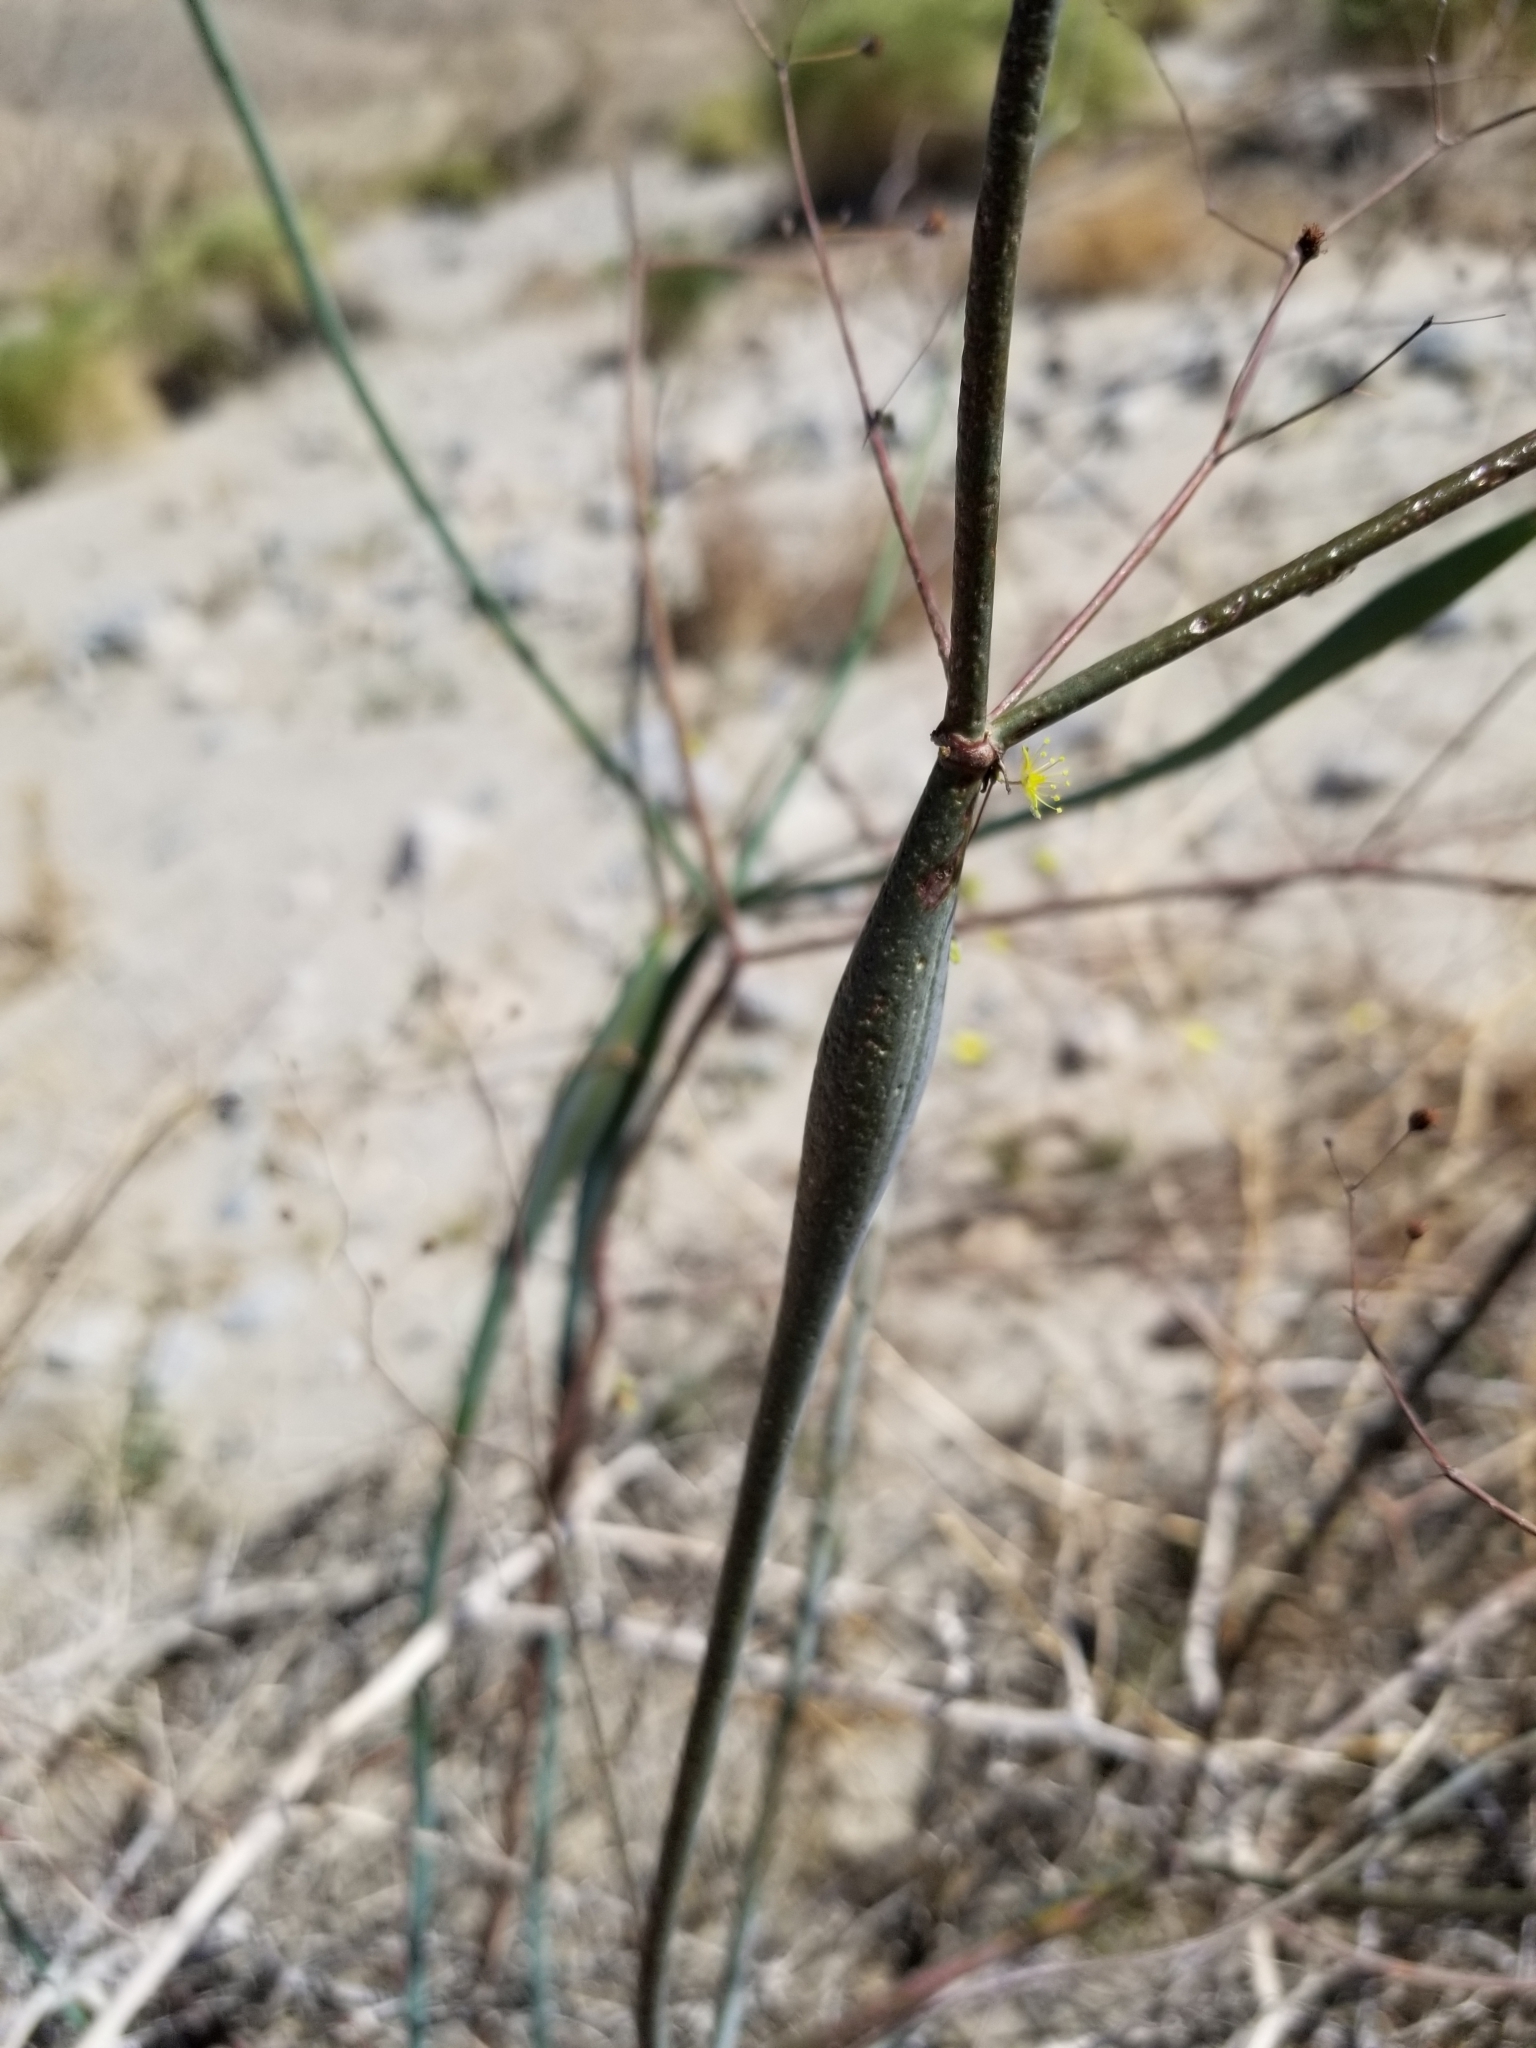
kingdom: Plantae
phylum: Tracheophyta
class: Magnoliopsida
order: Caryophyllales
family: Polygonaceae
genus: Eriogonum
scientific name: Eriogonum inflatum
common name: Desert trumpet
